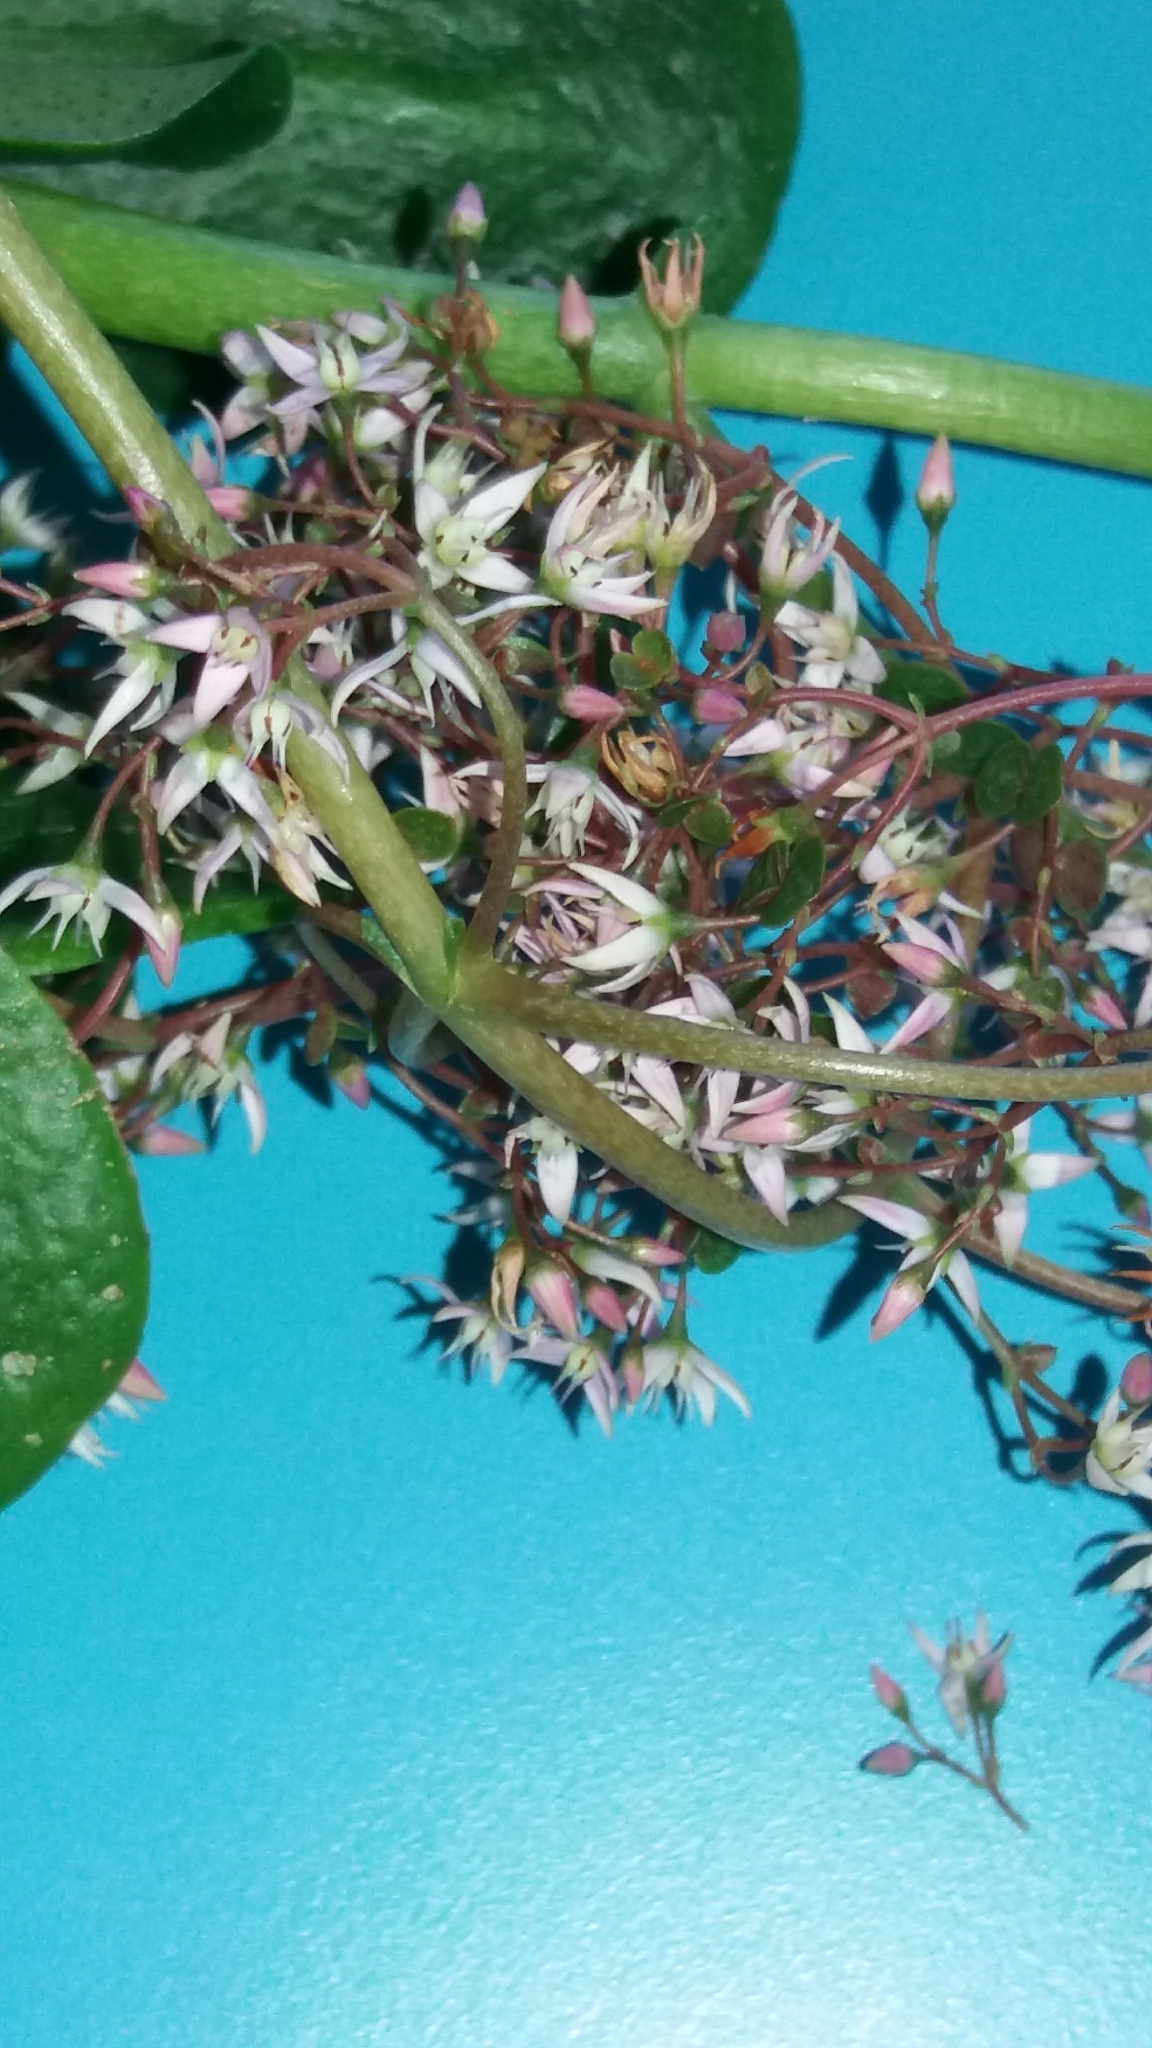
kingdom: Plantae
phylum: Tracheophyta
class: Magnoliopsida
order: Saxifragales
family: Crassulaceae
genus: Crassula
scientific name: Crassula multicava
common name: Cape province pygmyweed
